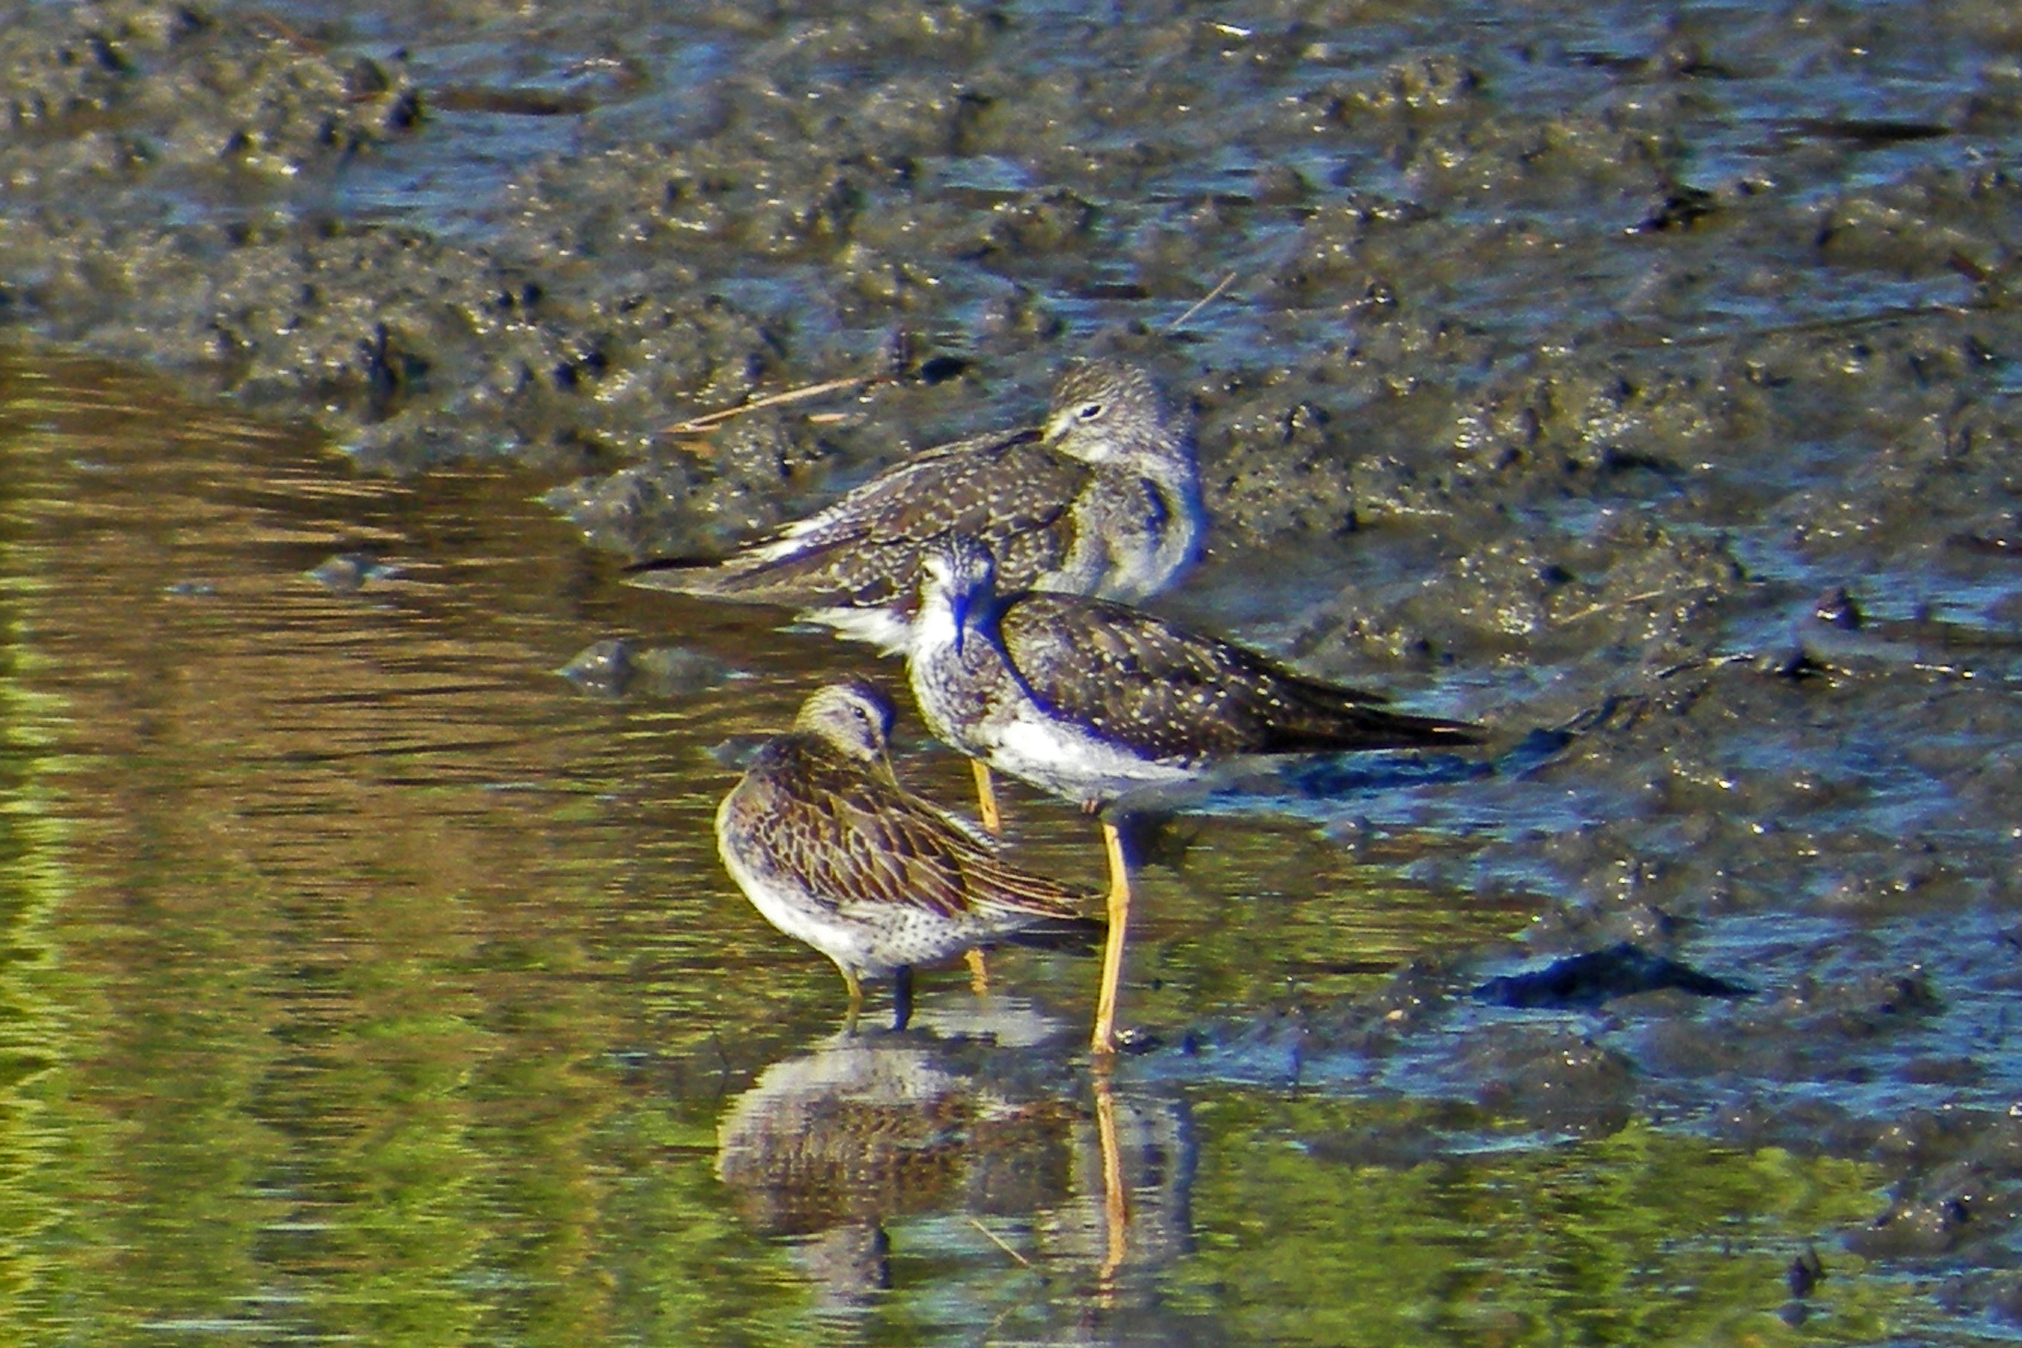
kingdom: Animalia
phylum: Chordata
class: Aves
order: Charadriiformes
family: Scolopacidae
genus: Tringa
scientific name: Tringa flavipes
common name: Lesser yellowlegs
